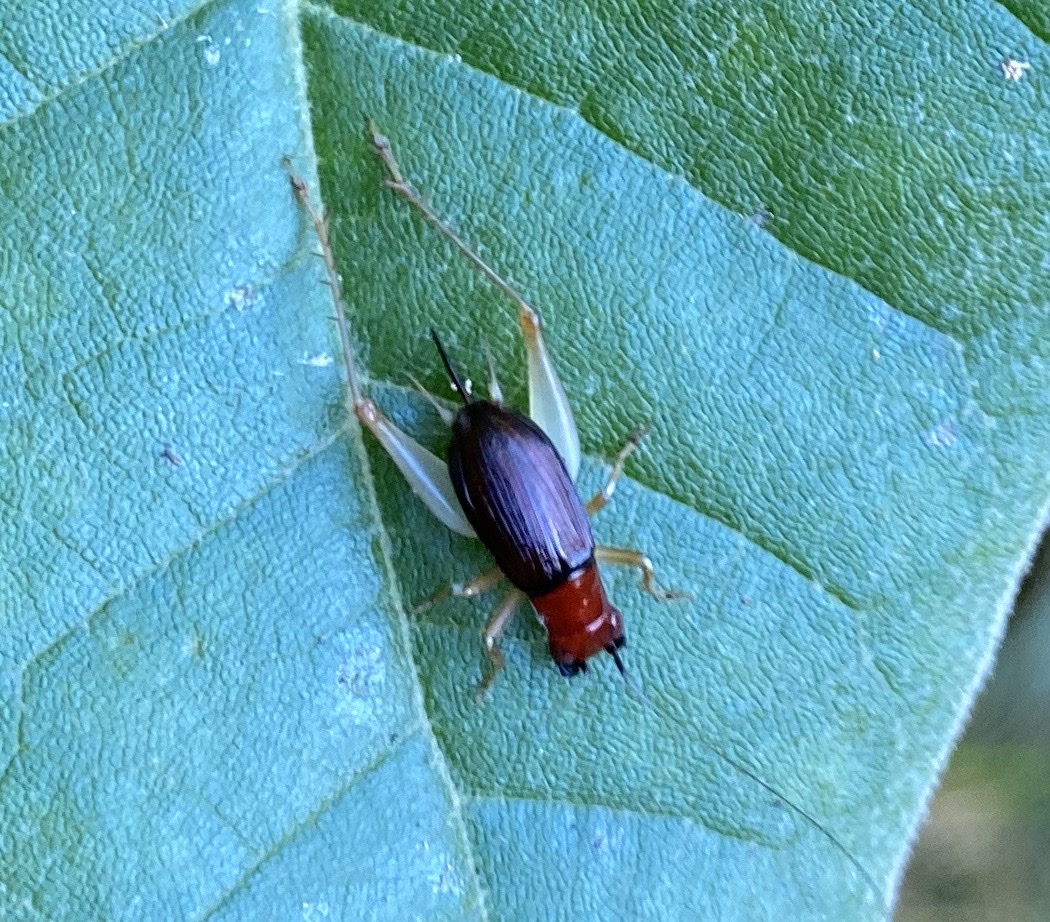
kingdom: Animalia
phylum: Arthropoda
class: Insecta
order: Orthoptera
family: Trigonidiidae
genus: Phyllopalpus
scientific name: Phyllopalpus pulchellus
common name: Handsome trig
